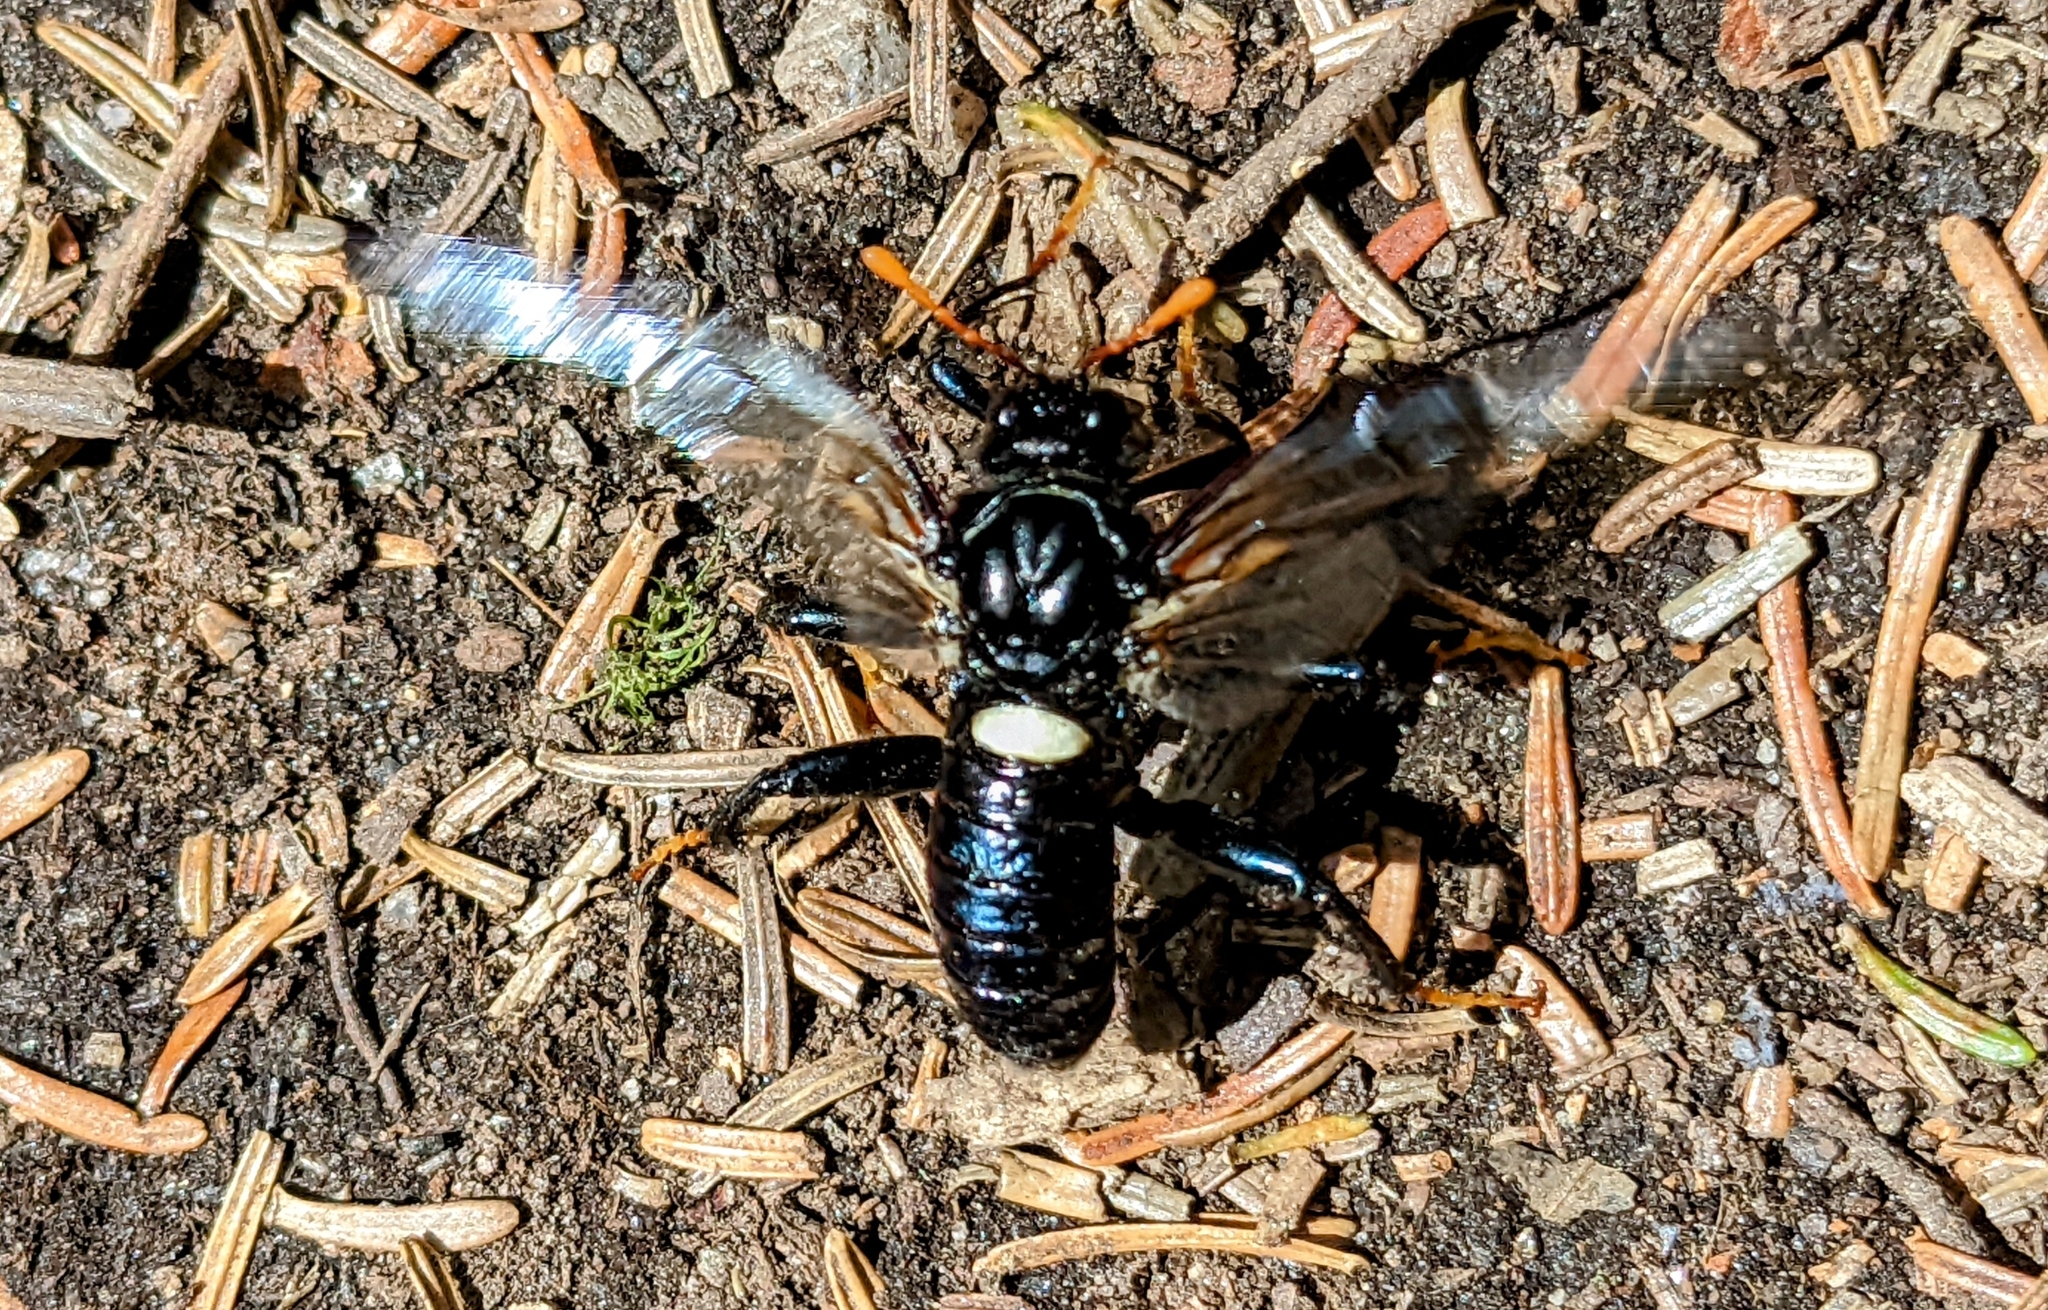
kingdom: Animalia
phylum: Arthropoda
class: Insecta
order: Hymenoptera
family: Cimbicidae
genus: Cimbex
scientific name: Cimbex americana
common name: Elm sawfly
